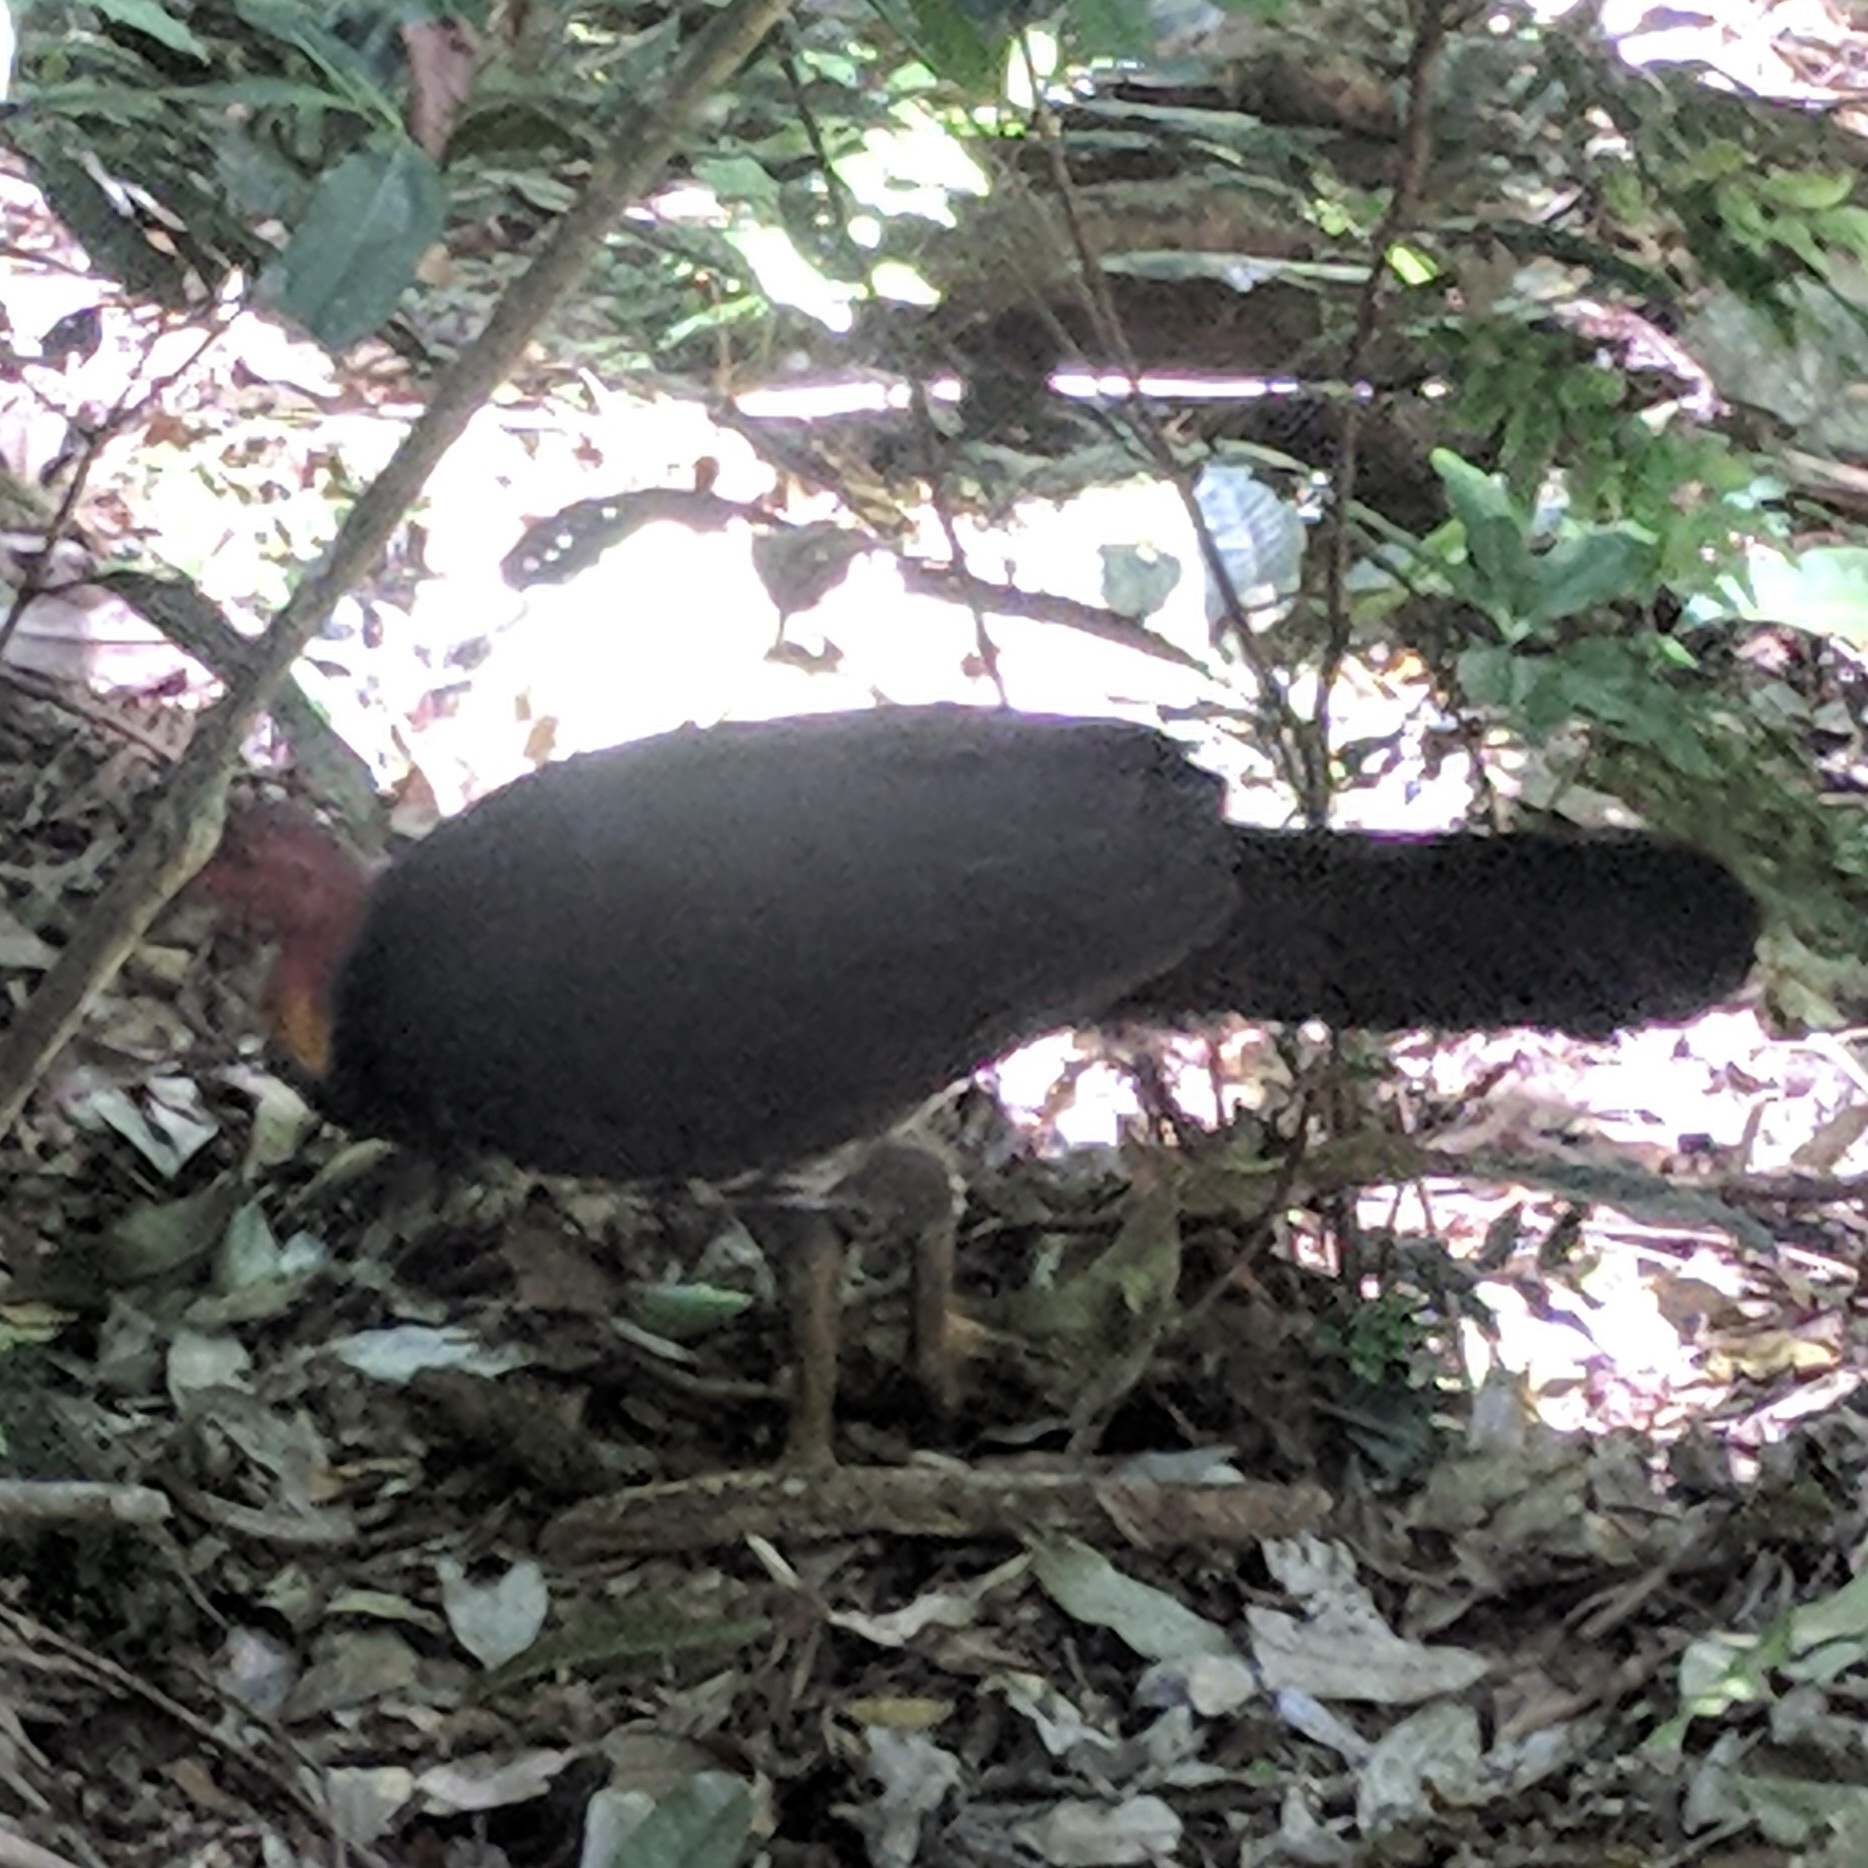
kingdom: Animalia
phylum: Chordata
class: Aves
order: Galliformes
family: Megapodiidae
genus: Alectura
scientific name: Alectura lathami
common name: Australian brushturkey
